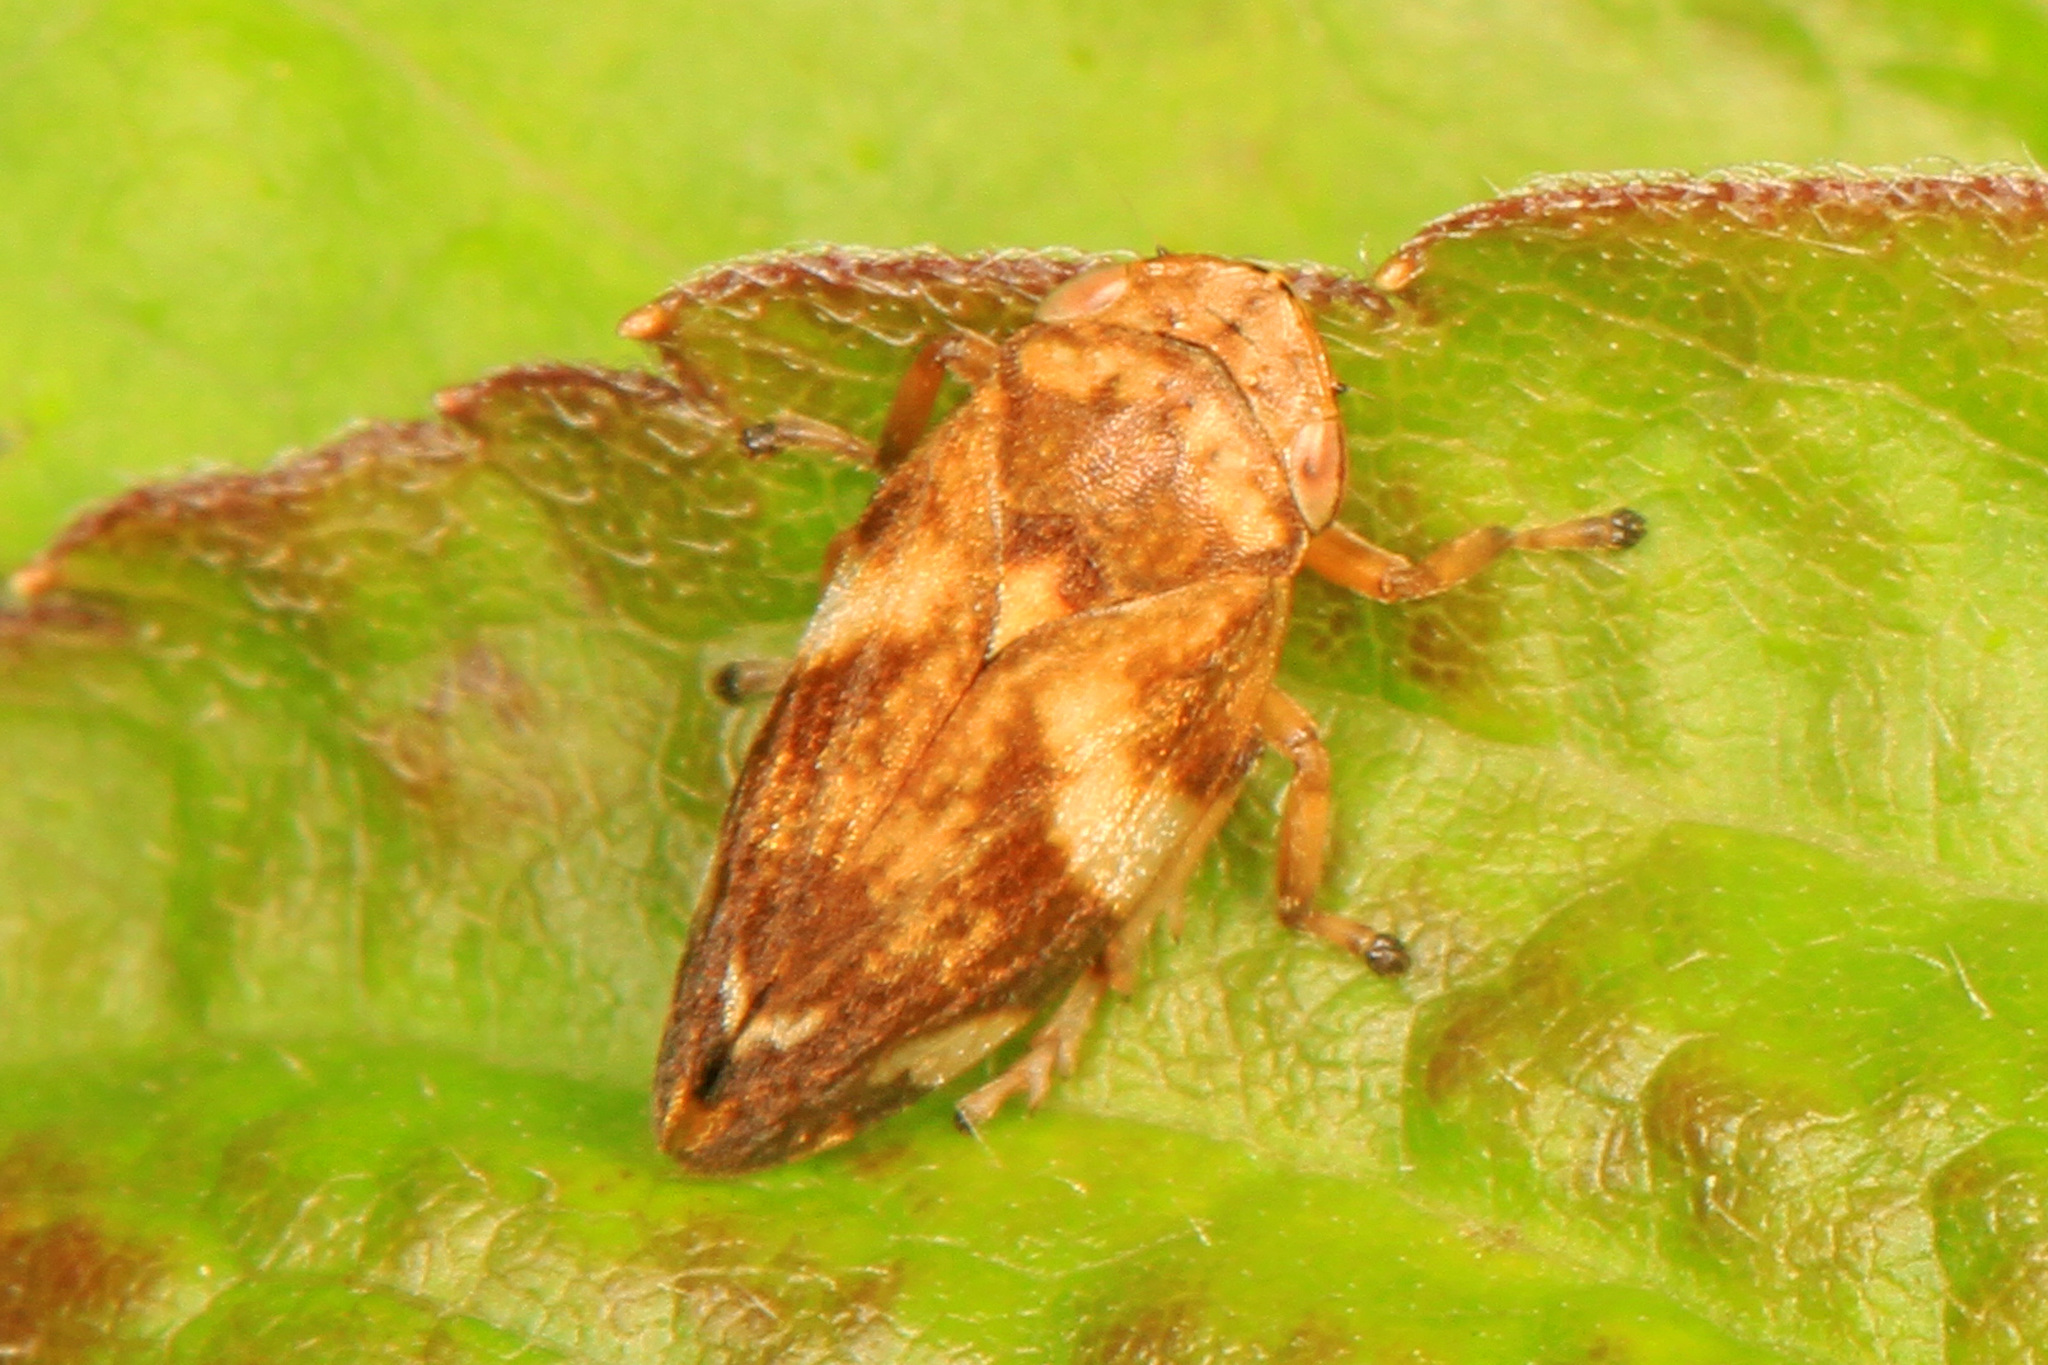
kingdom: Animalia
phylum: Arthropoda
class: Insecta
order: Hemiptera
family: Aphrophoridae
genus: Philaenus
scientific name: Philaenus spumarius
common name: Meadow spittlebug
